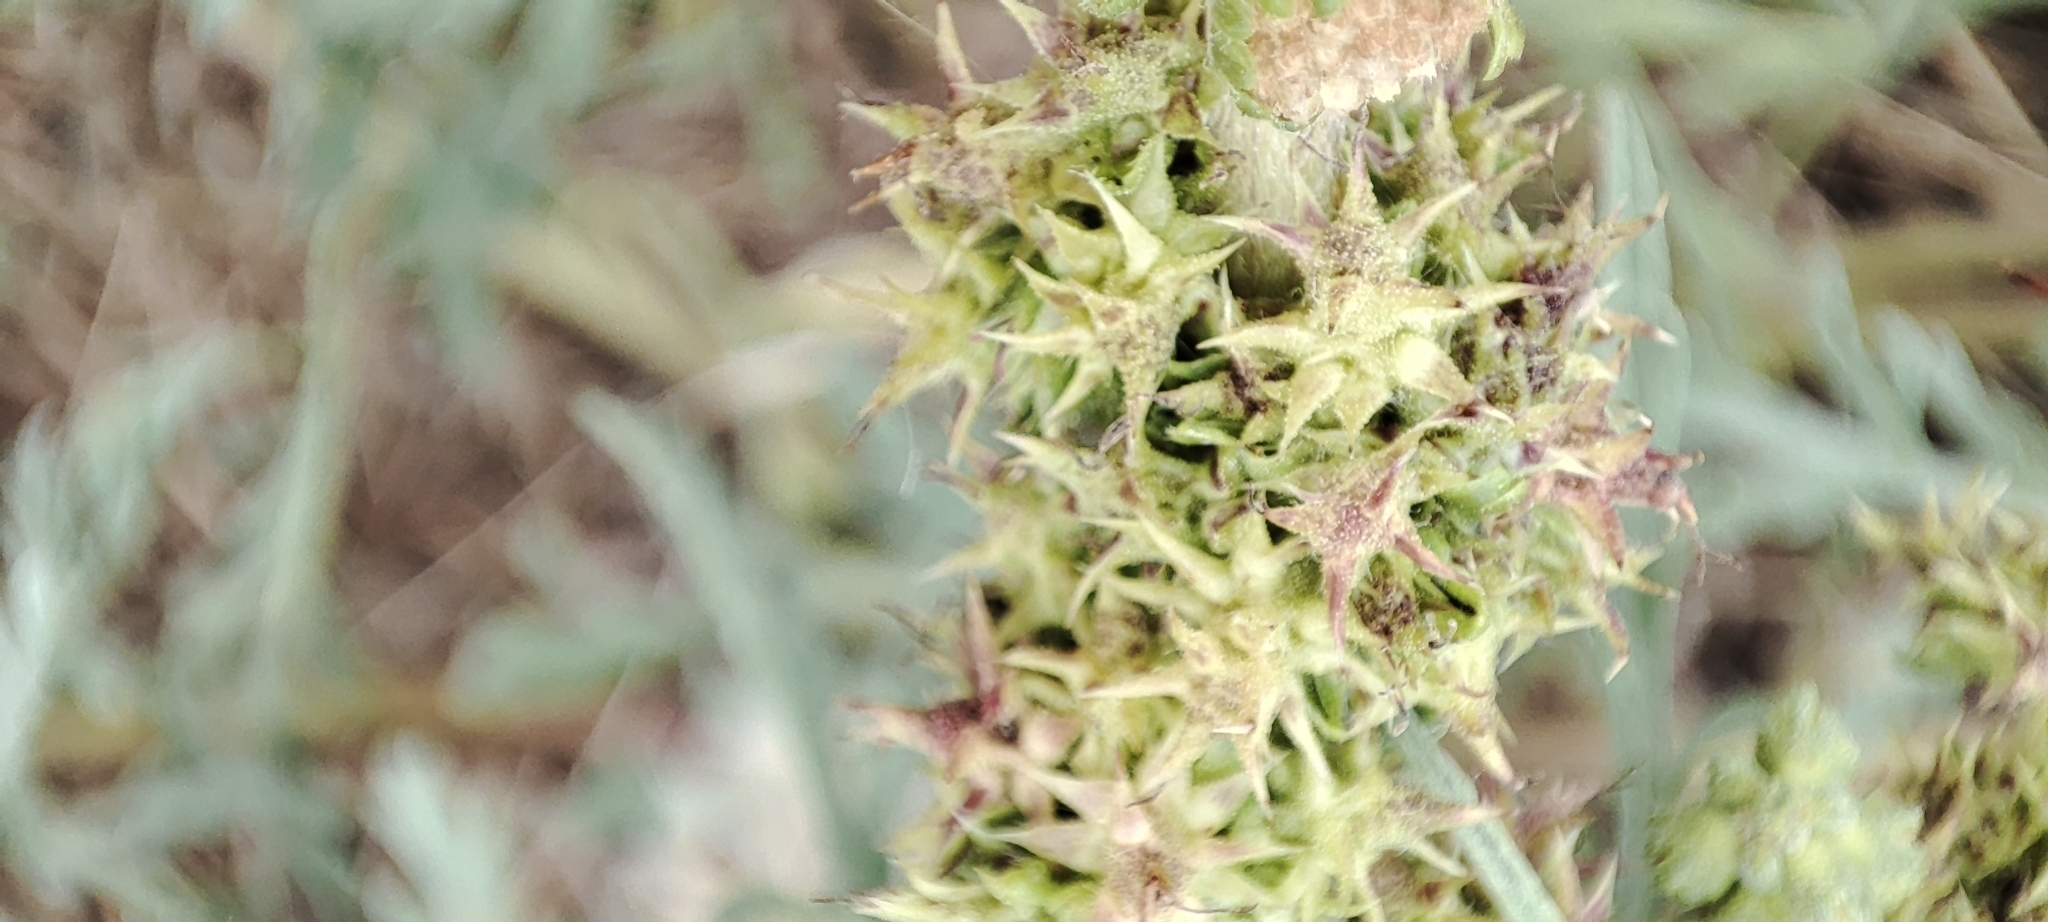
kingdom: Plantae
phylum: Tracheophyta
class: Magnoliopsida
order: Asterales
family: Asteraceae
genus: Ambrosia
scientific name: Ambrosia chamissonis
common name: Beachbur
